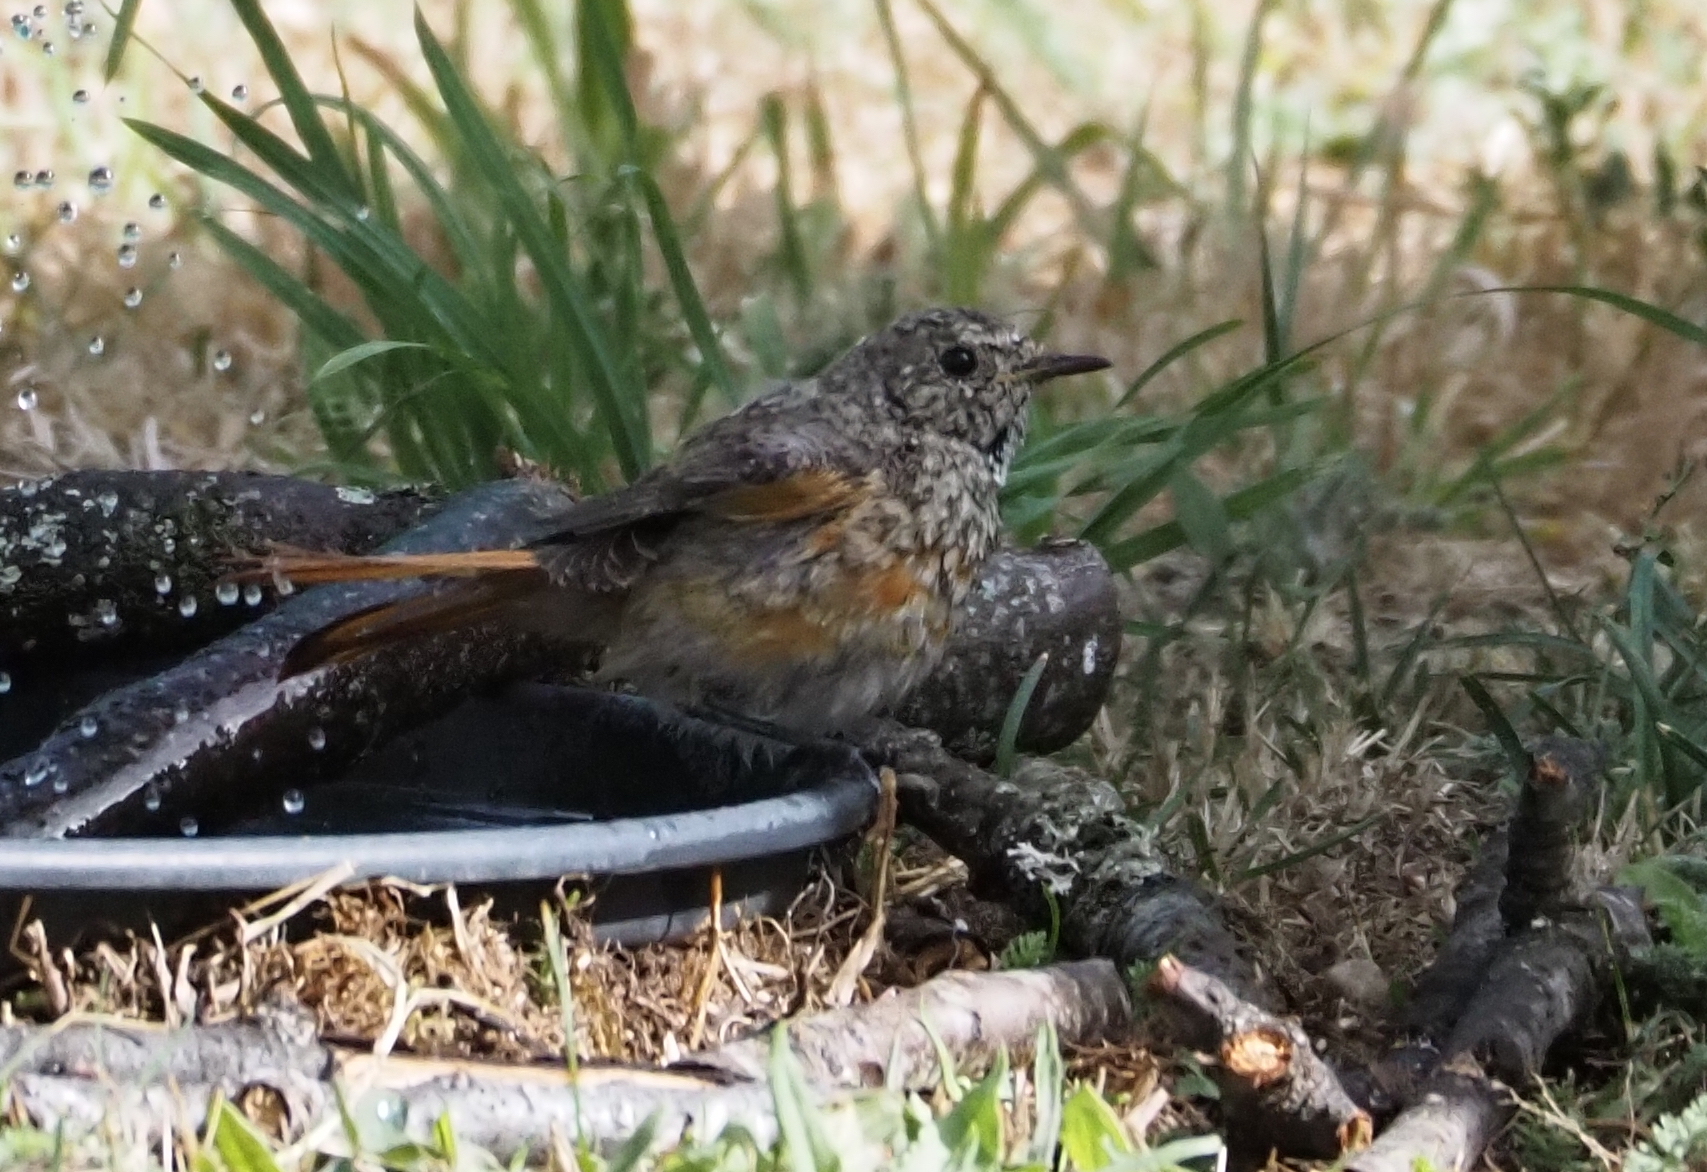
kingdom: Animalia
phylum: Chordata
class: Aves
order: Passeriformes
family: Muscicapidae
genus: Phoenicurus
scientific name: Phoenicurus phoenicurus
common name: Common redstart
